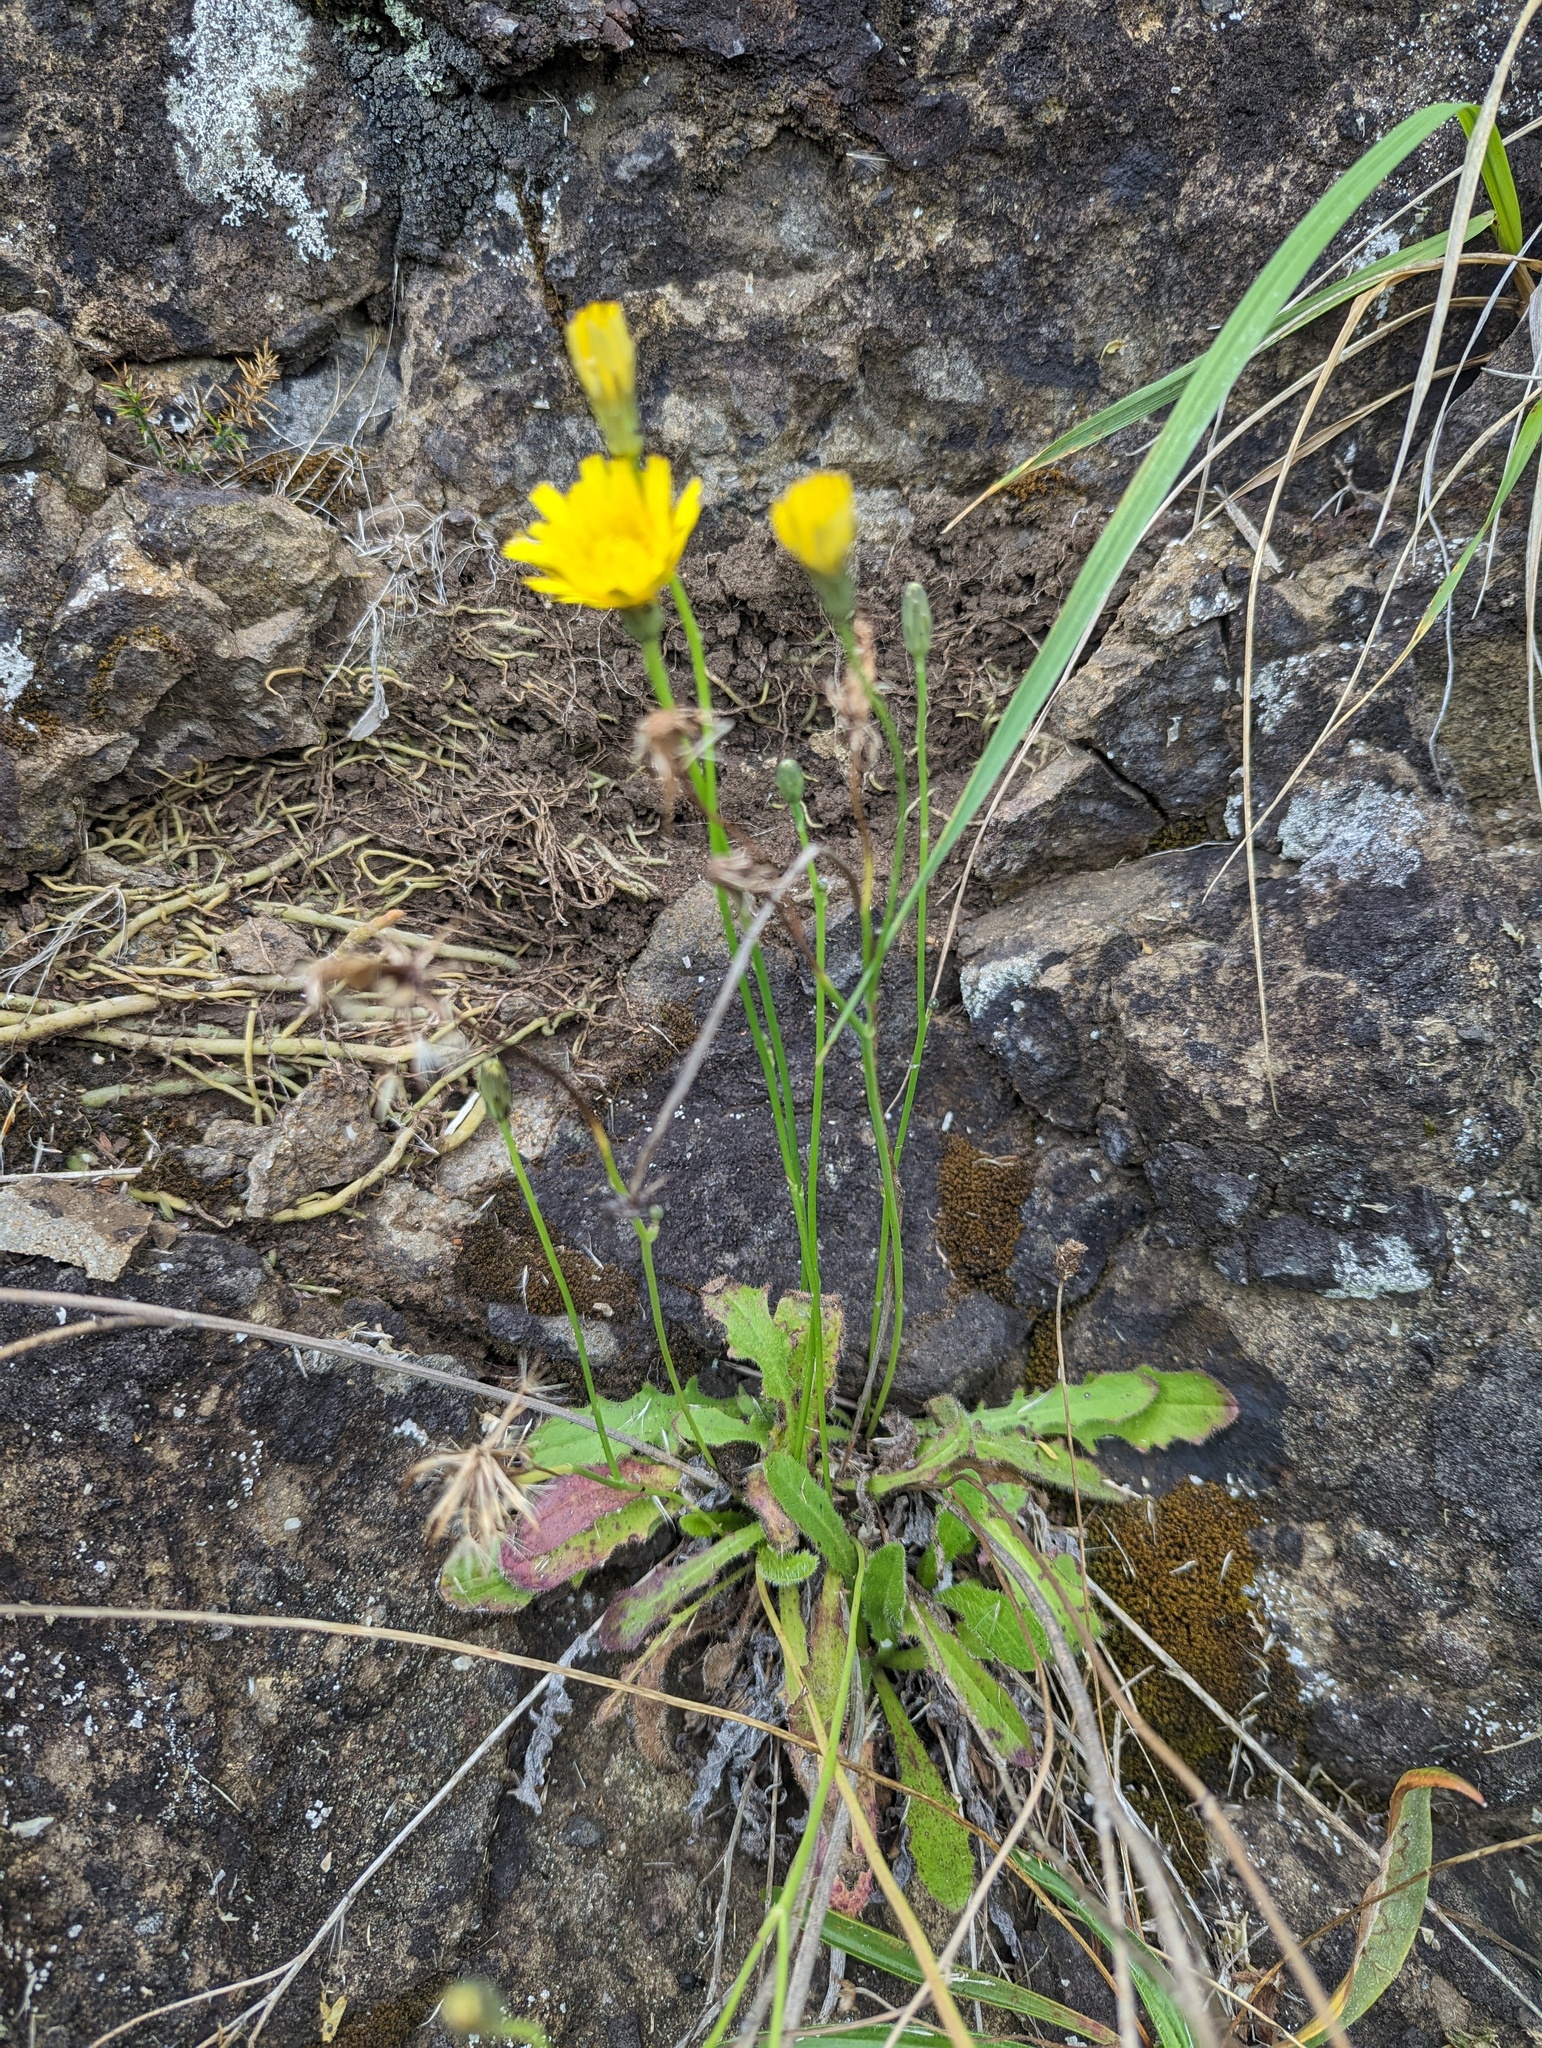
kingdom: Plantae
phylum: Tracheophyta
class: Magnoliopsida
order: Asterales
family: Asteraceae
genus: Hypochaeris
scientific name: Hypochaeris radicata
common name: Flatweed
